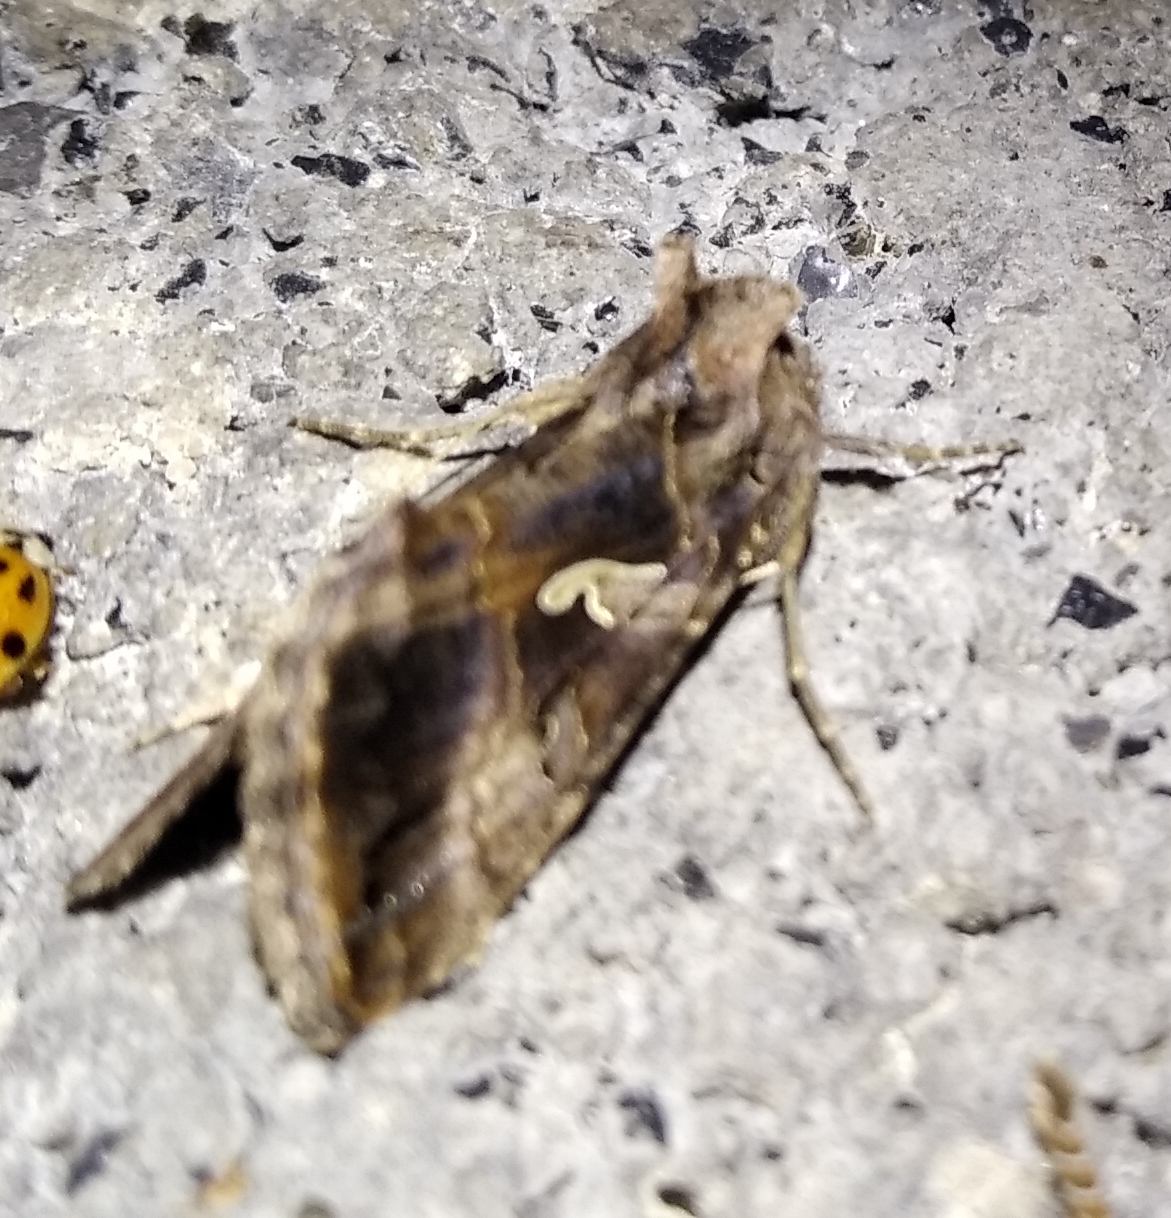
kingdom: Animalia
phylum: Arthropoda
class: Insecta
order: Lepidoptera
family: Noctuidae
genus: Autographa
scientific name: Autographa gamma
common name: Silver y
